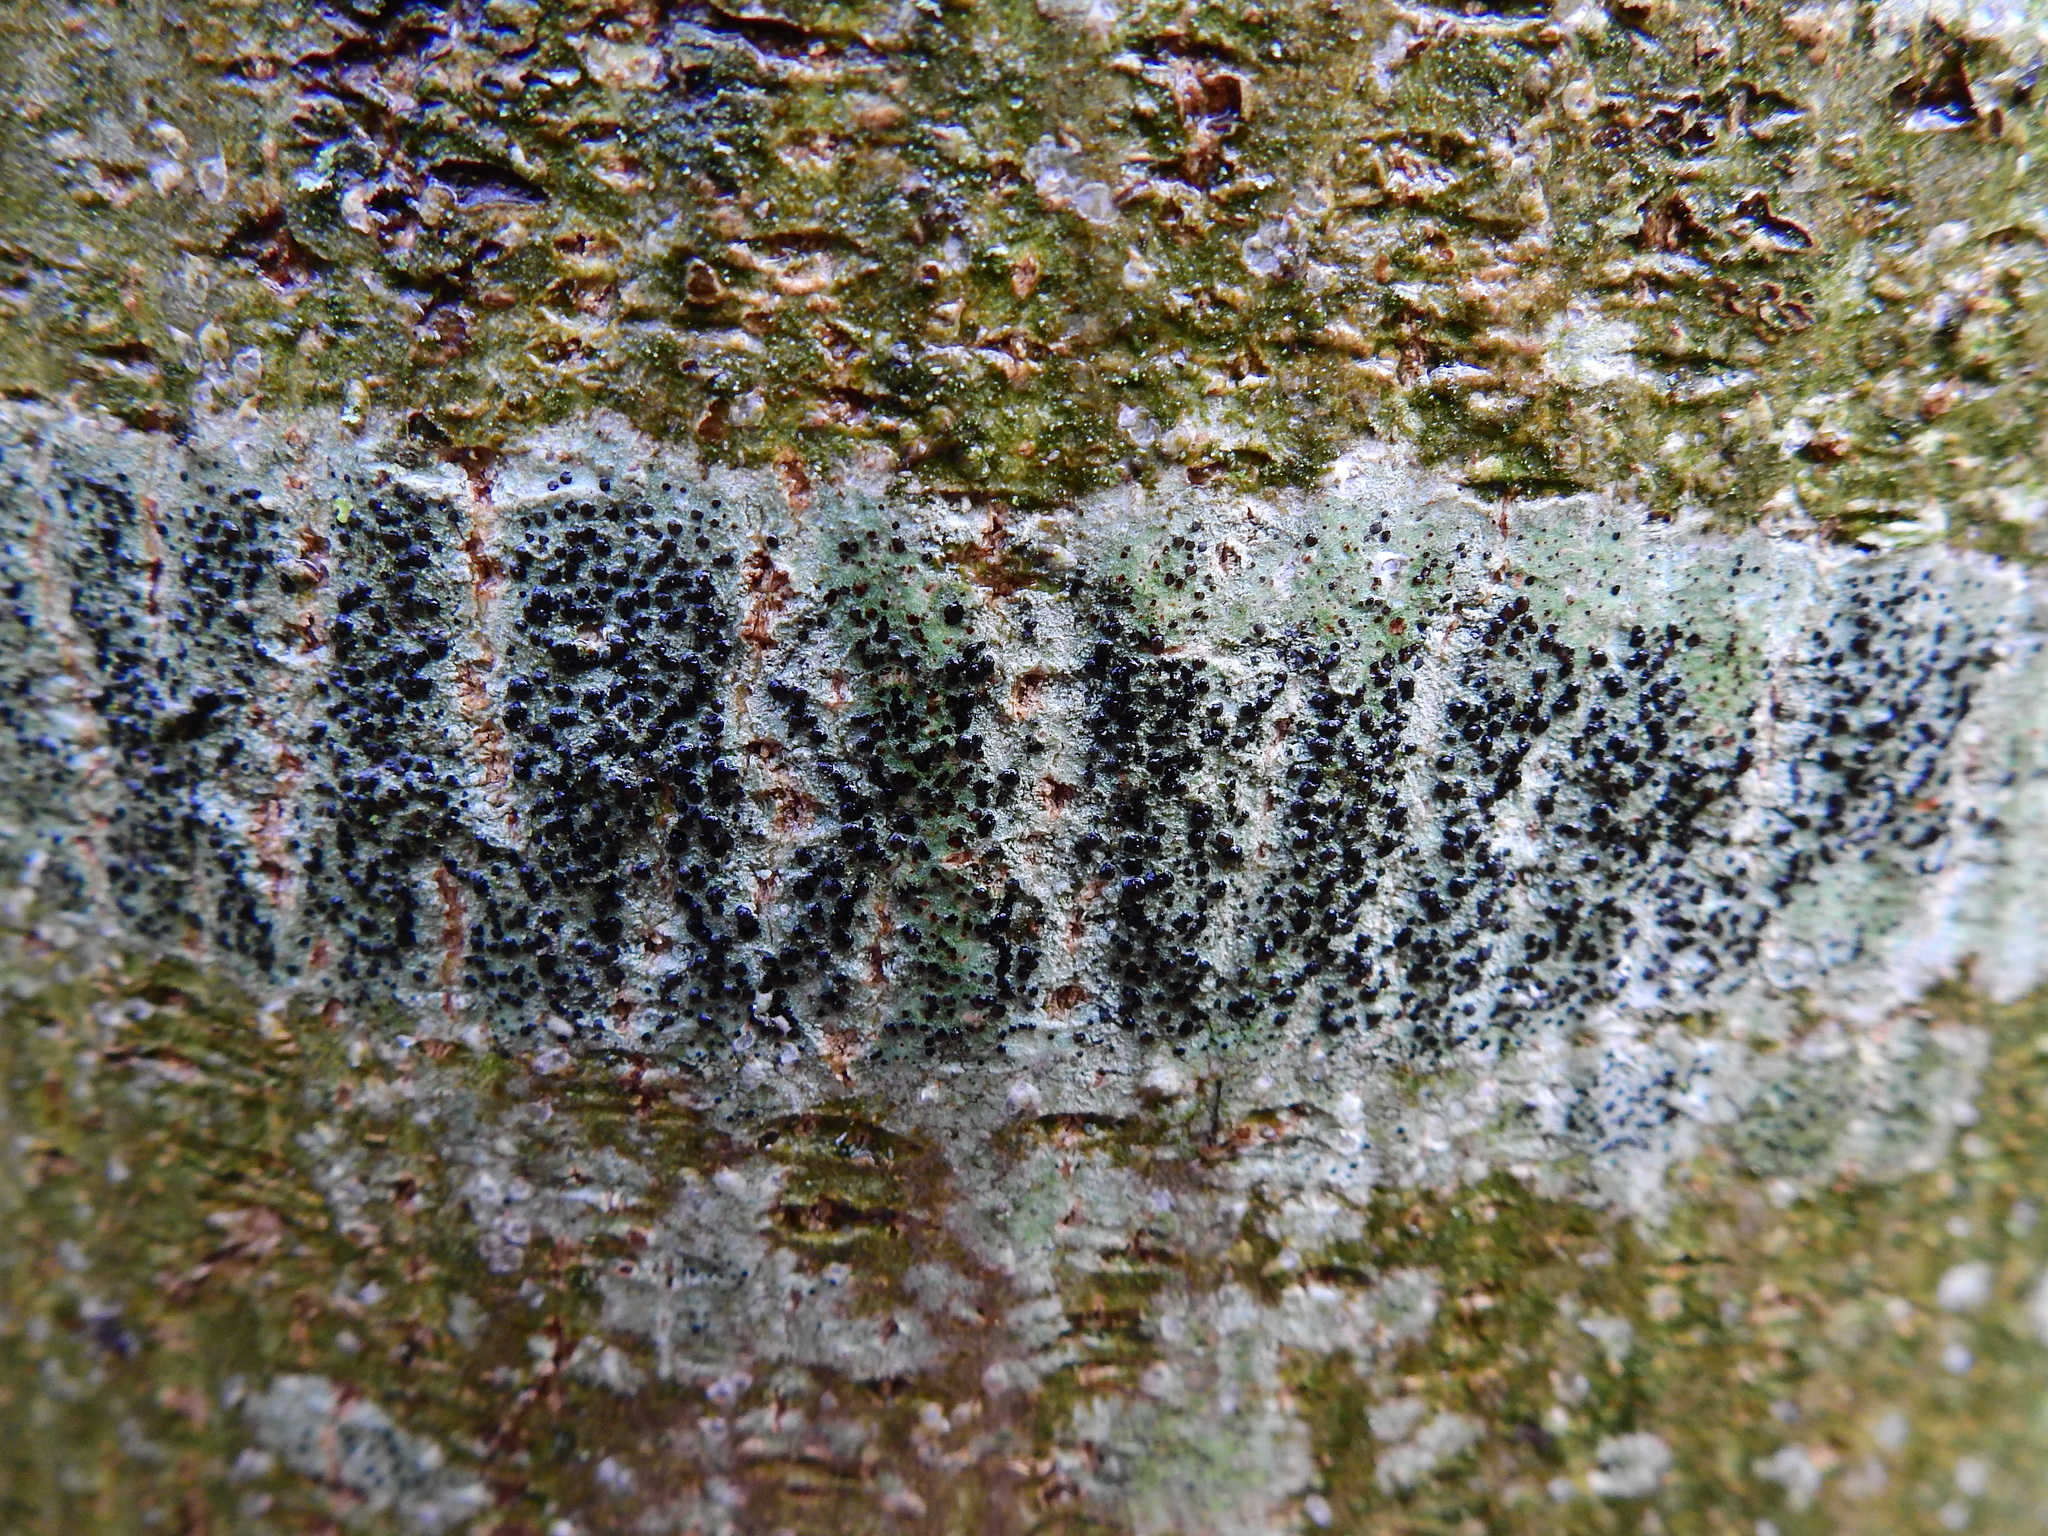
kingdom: Fungi
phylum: Ascomycota
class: Lecanoromycetes
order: Lecanorales
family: Lecanoraceae
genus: Lecidella
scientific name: Lecidella elaeochroma
